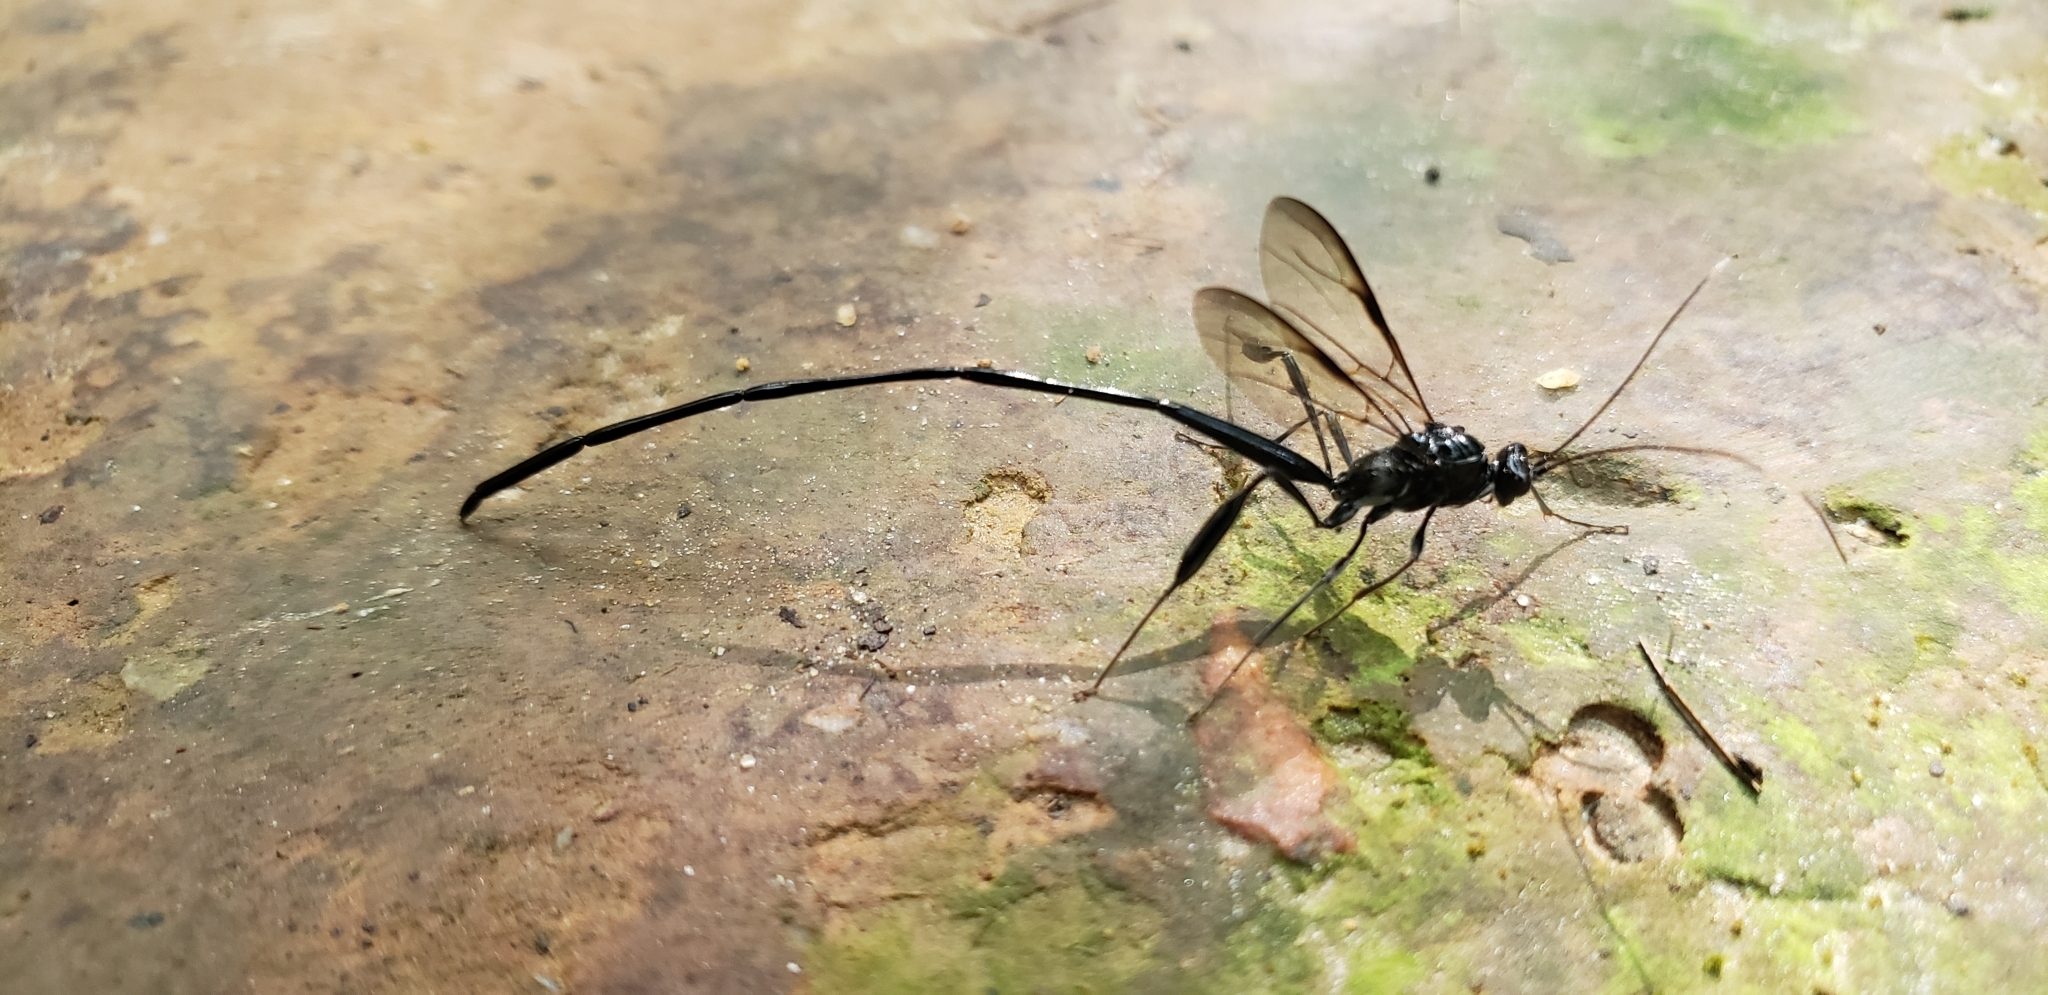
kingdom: Animalia
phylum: Arthropoda
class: Insecta
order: Hymenoptera
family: Pelecinidae
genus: Pelecinus
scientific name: Pelecinus polyturator
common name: American pelecinid wasp
